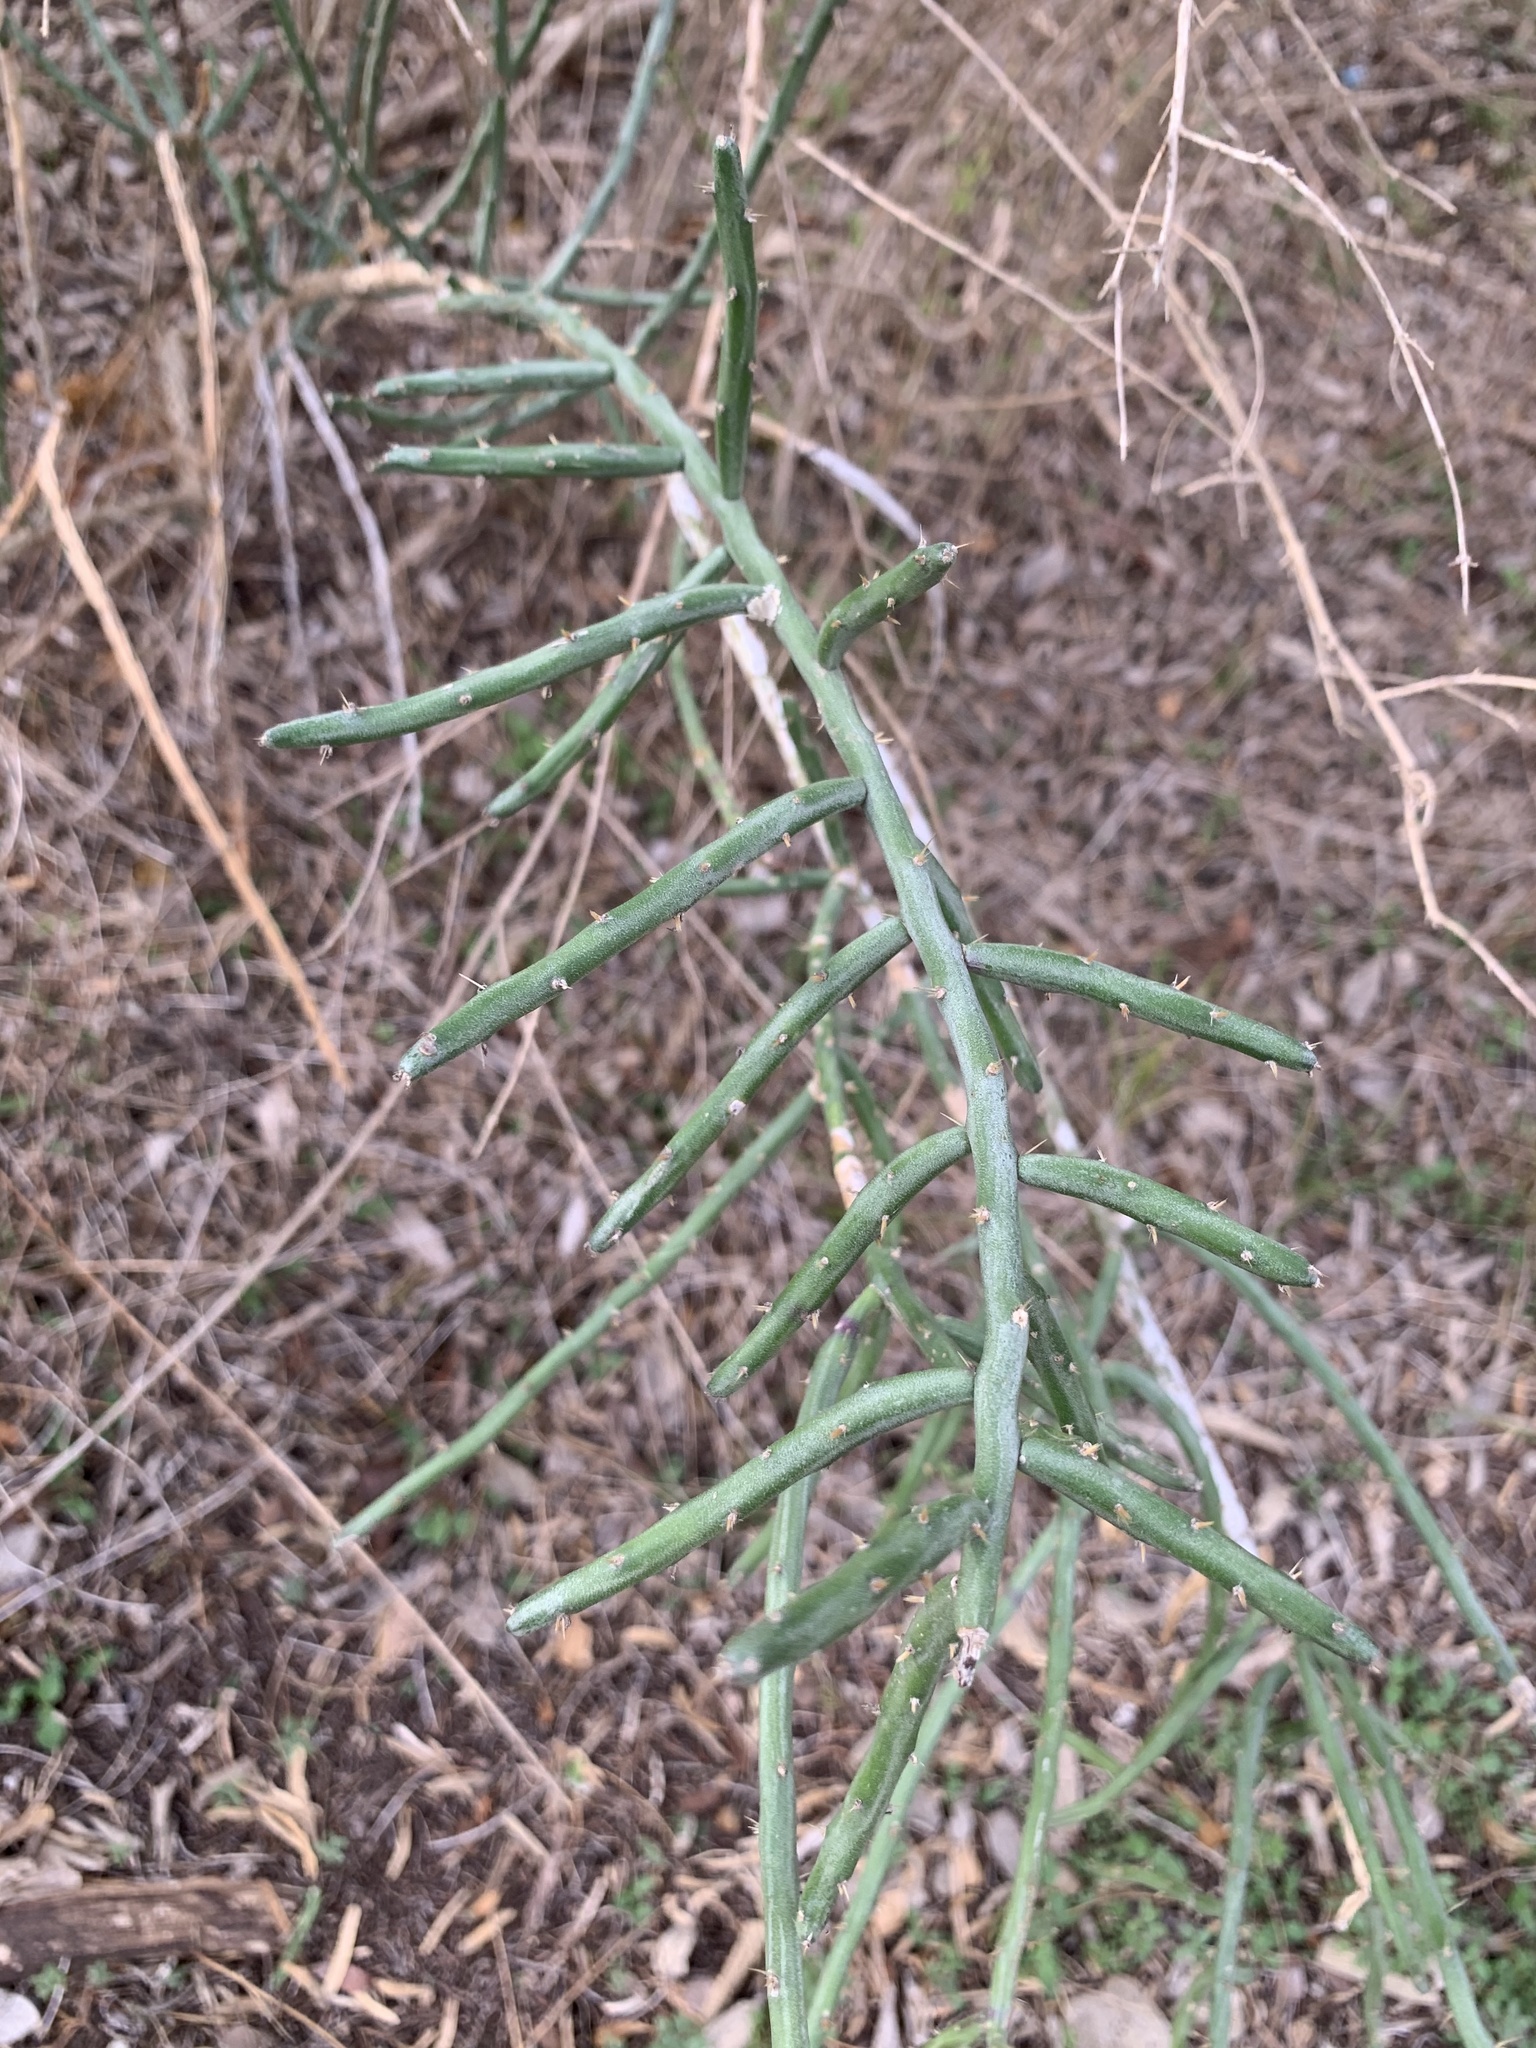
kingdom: Plantae
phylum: Tracheophyta
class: Magnoliopsida
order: Caryophyllales
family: Cactaceae
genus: Cylindropuntia
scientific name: Cylindropuntia leptocaulis
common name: Christmas cactus
